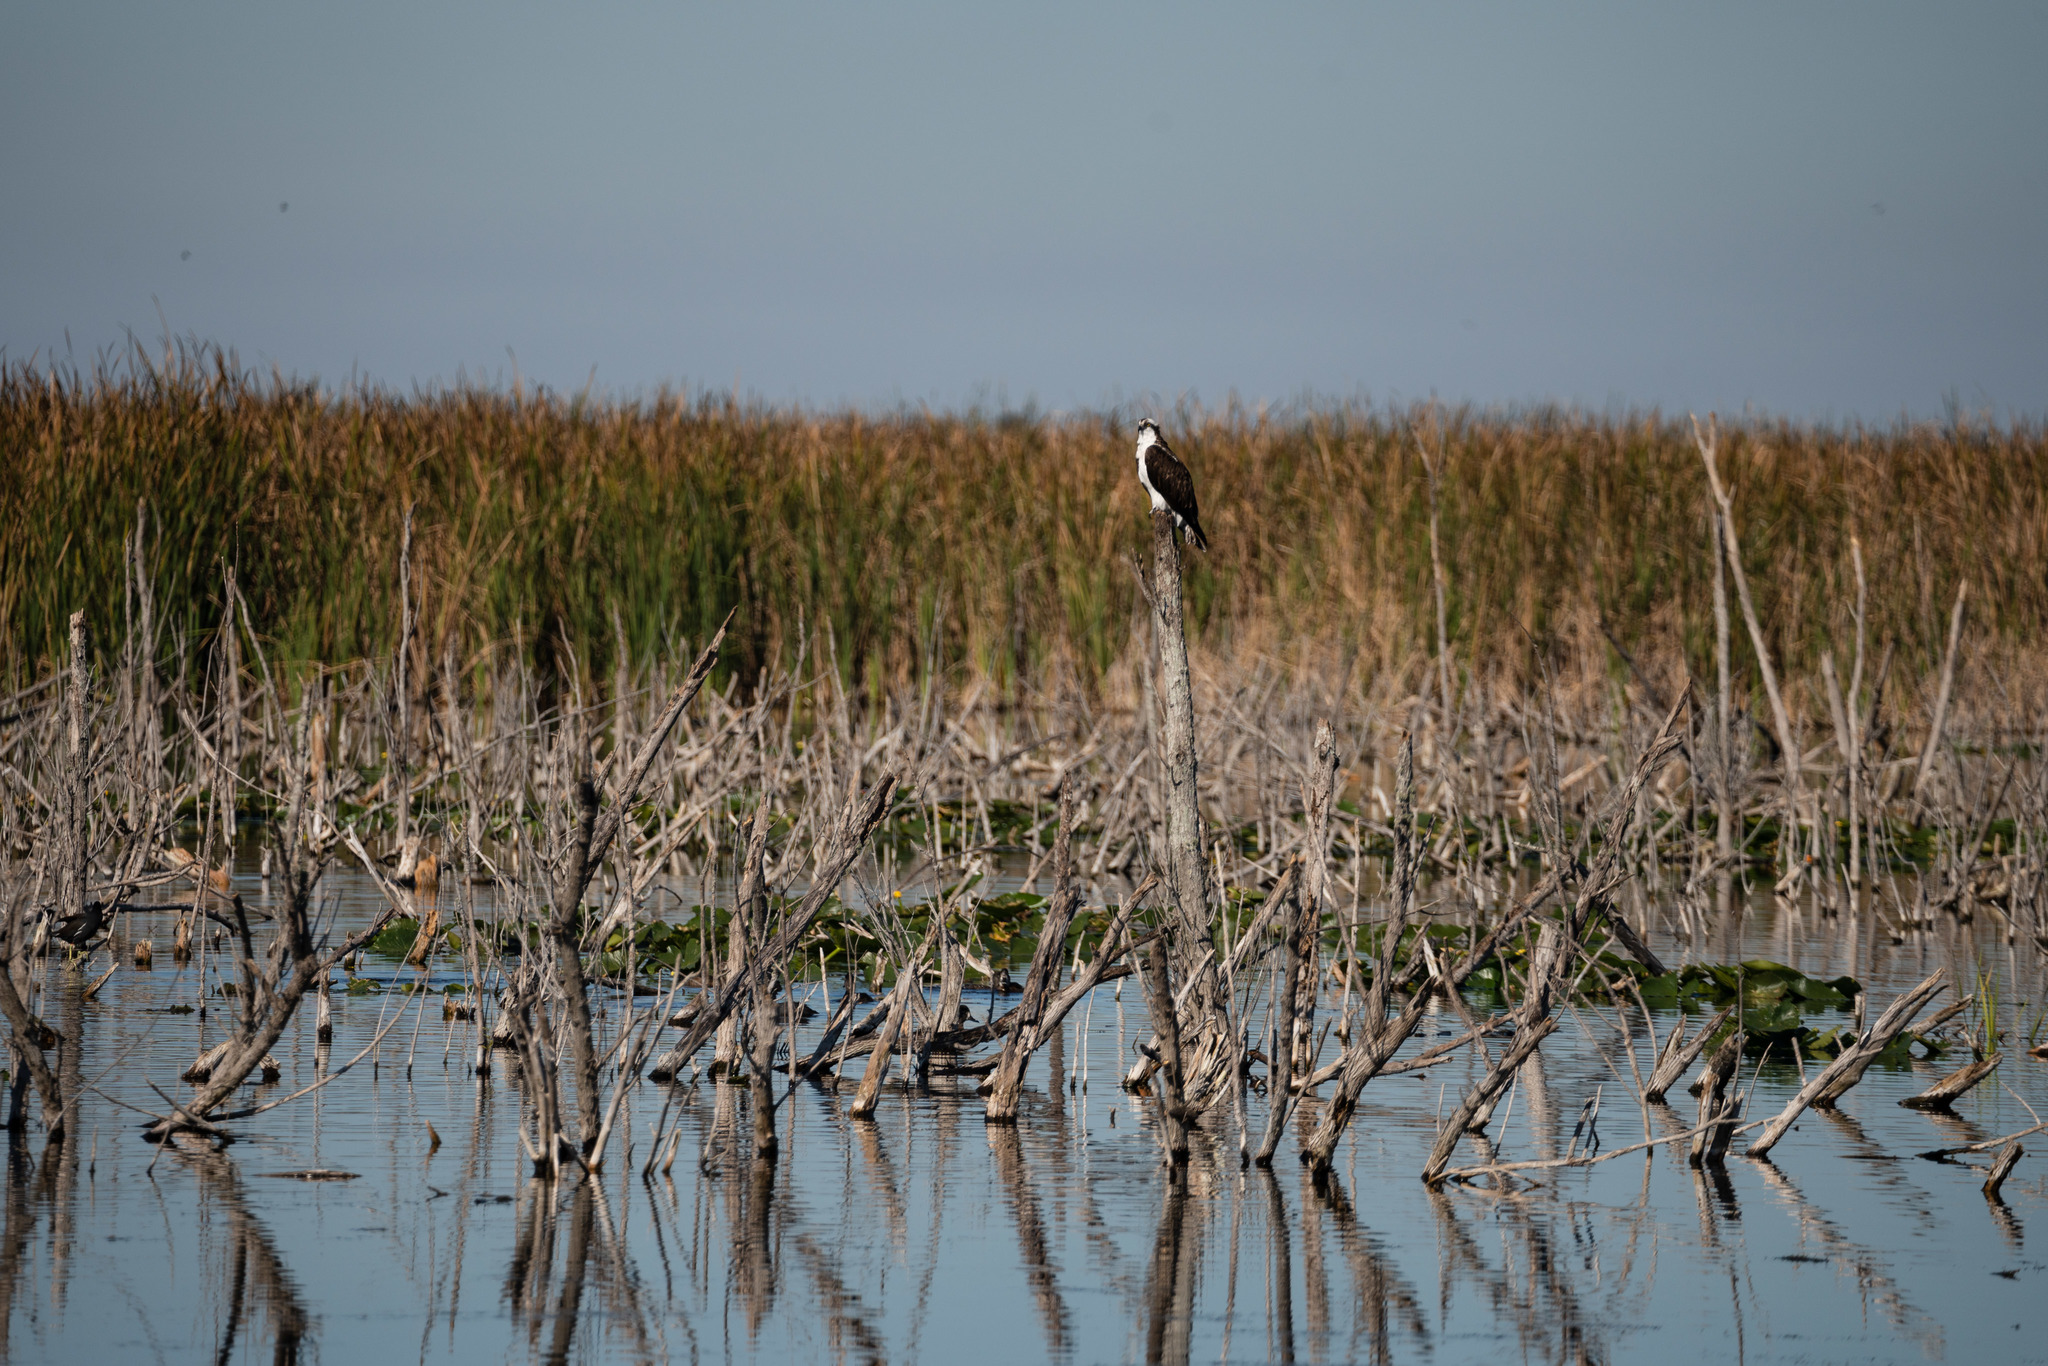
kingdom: Animalia
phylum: Chordata
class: Aves
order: Accipitriformes
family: Pandionidae
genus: Pandion
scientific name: Pandion haliaetus
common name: Osprey
